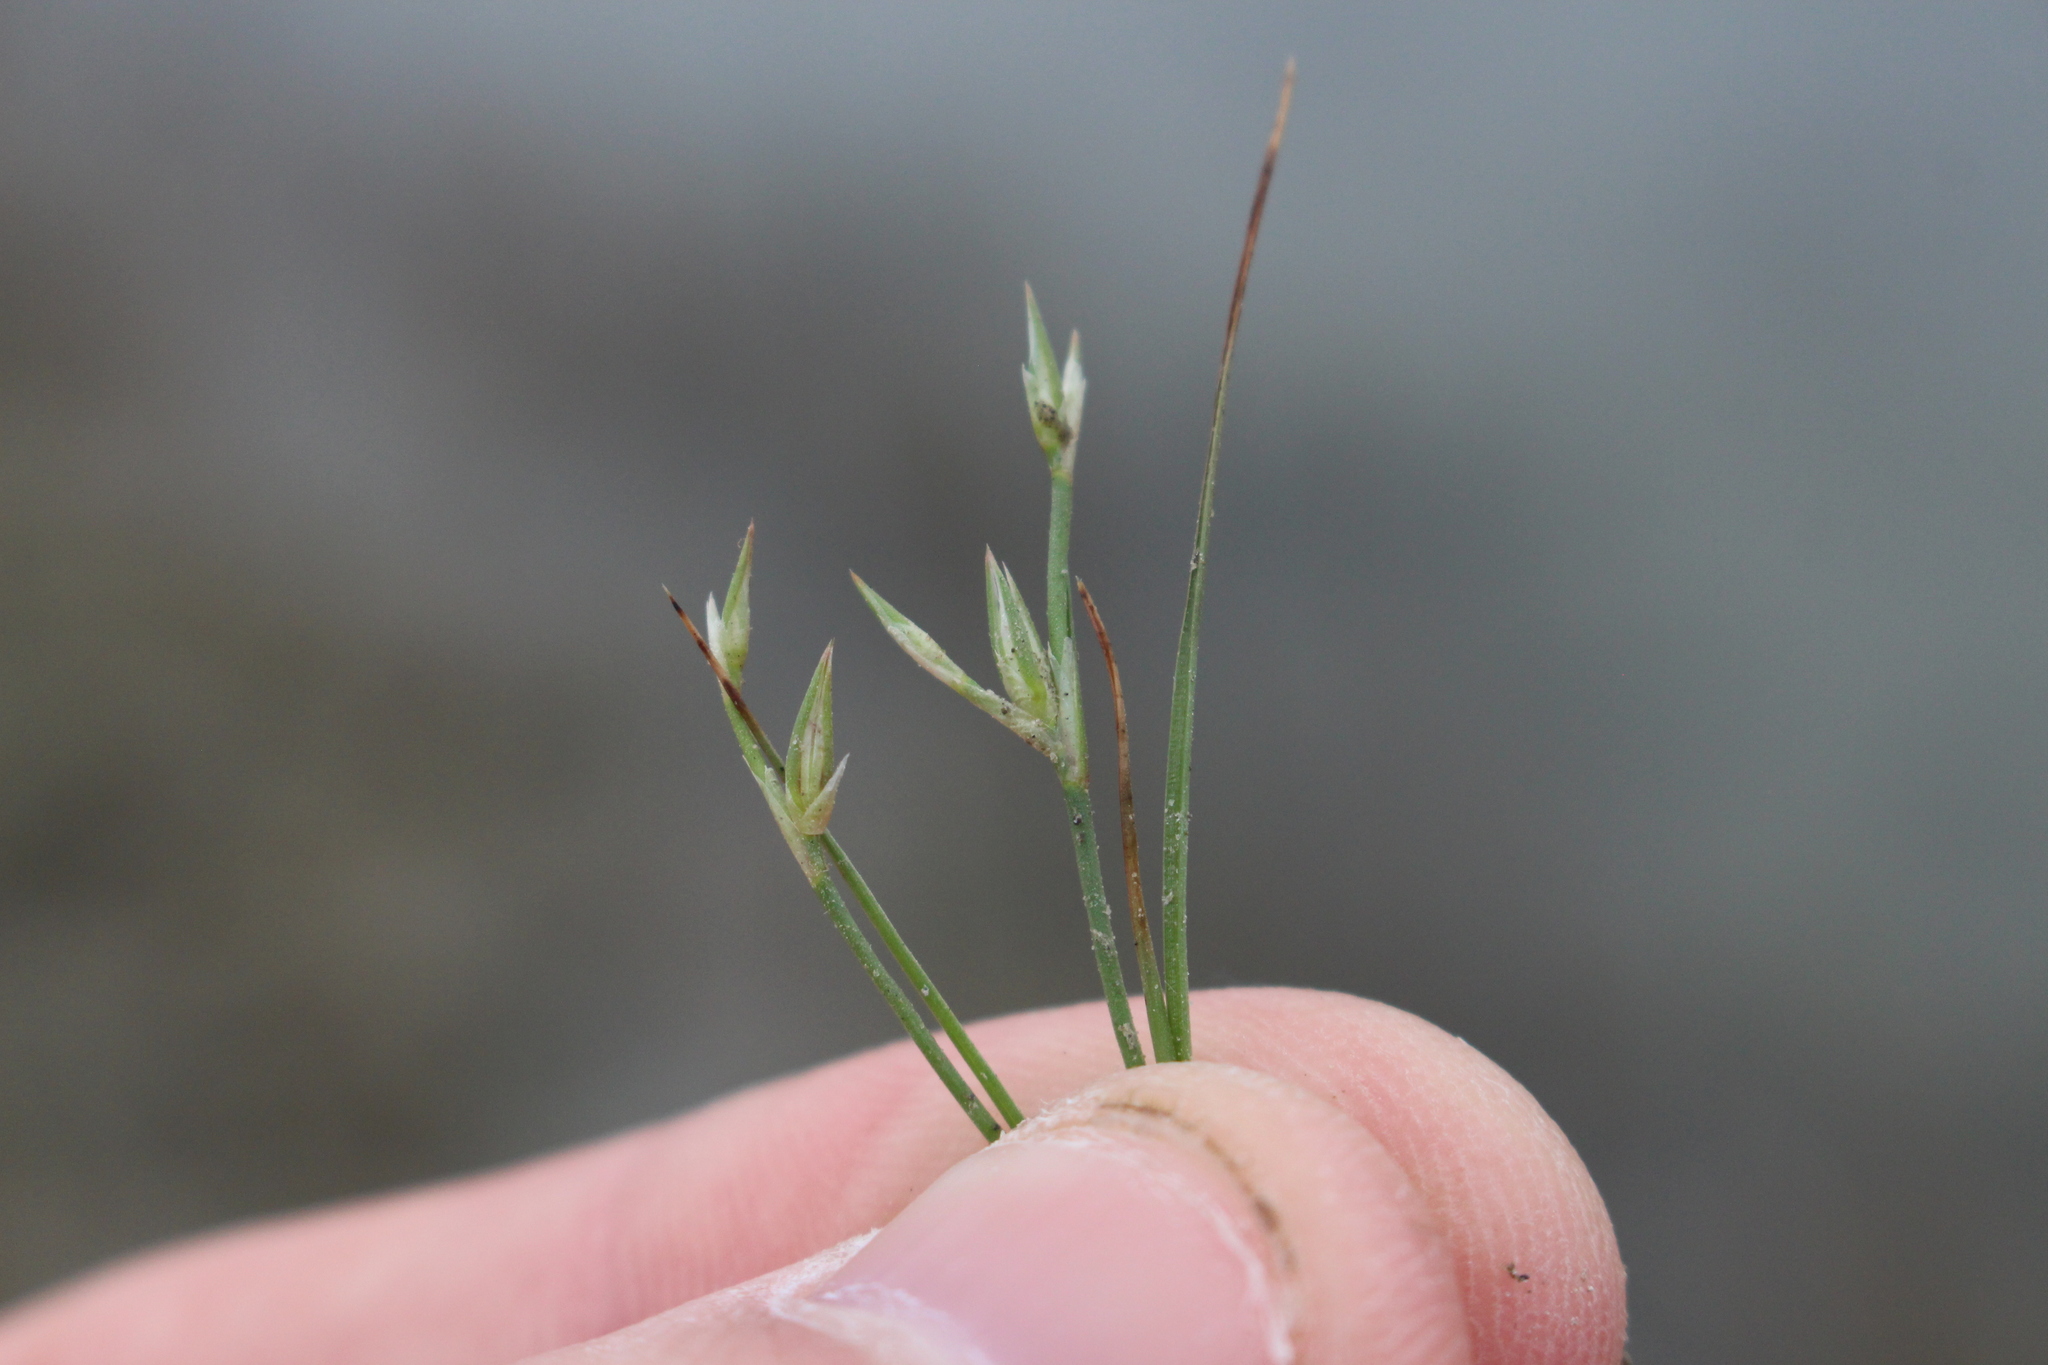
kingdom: Plantae
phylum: Tracheophyta
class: Liliopsida
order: Poales
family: Juncaceae
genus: Juncus
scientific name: Juncus bufonius
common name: Toad rush
